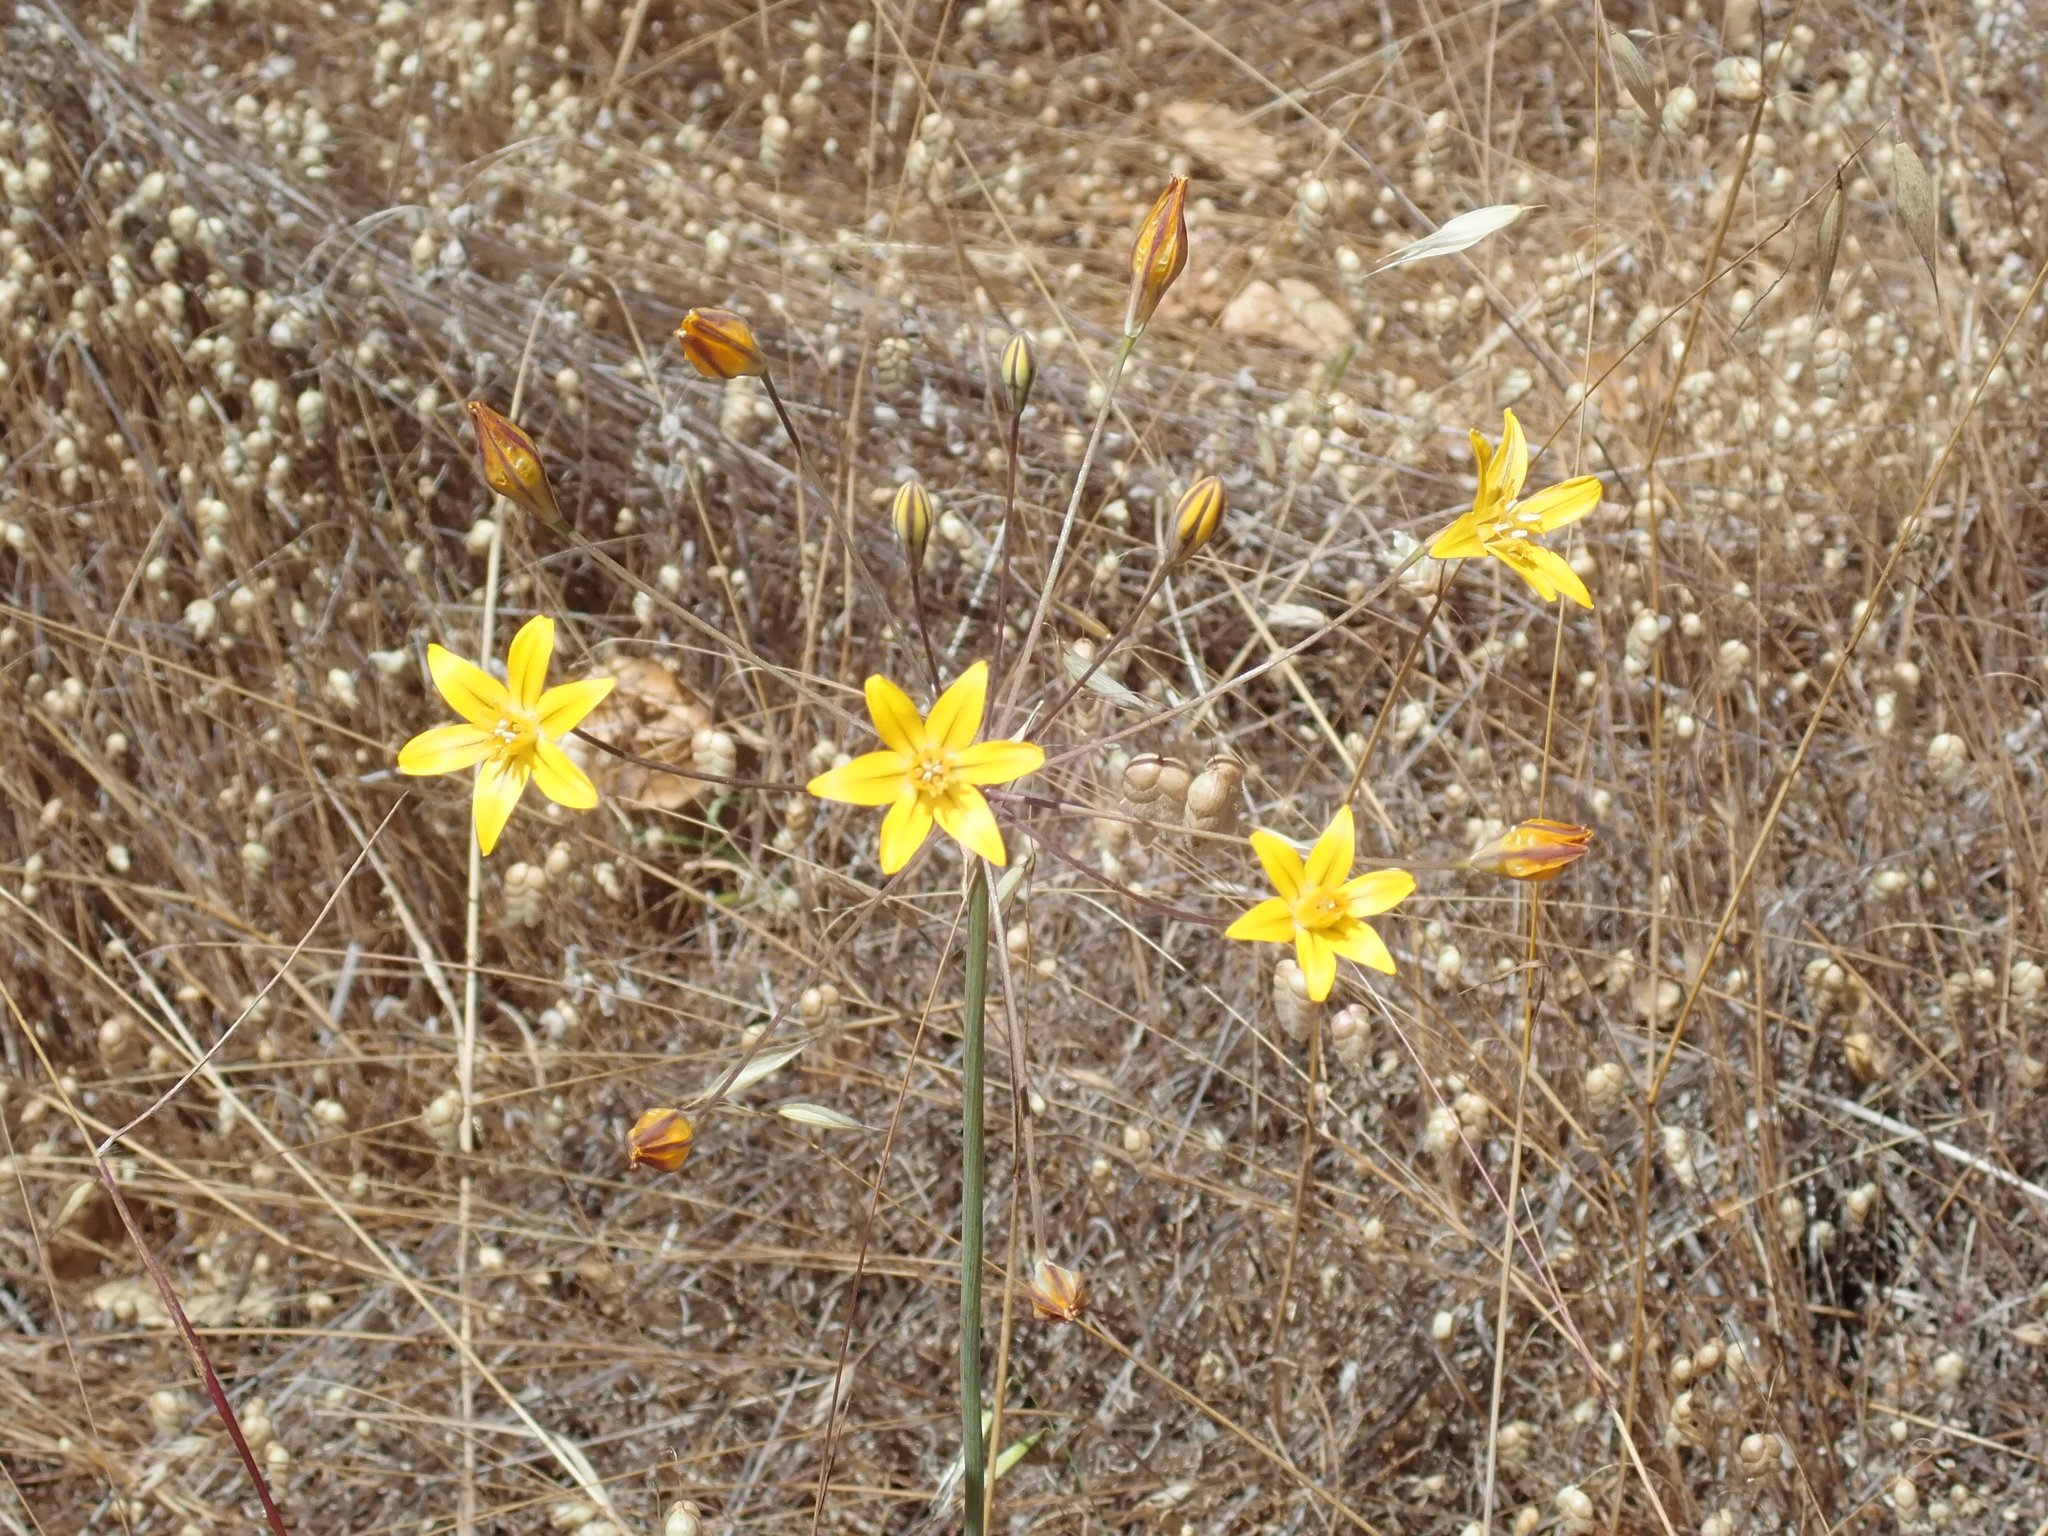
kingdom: Plantae
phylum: Tracheophyta
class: Liliopsida
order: Asparagales
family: Asparagaceae
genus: Triteleia
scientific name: Triteleia ixioides
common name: Yellow-brodiaea
